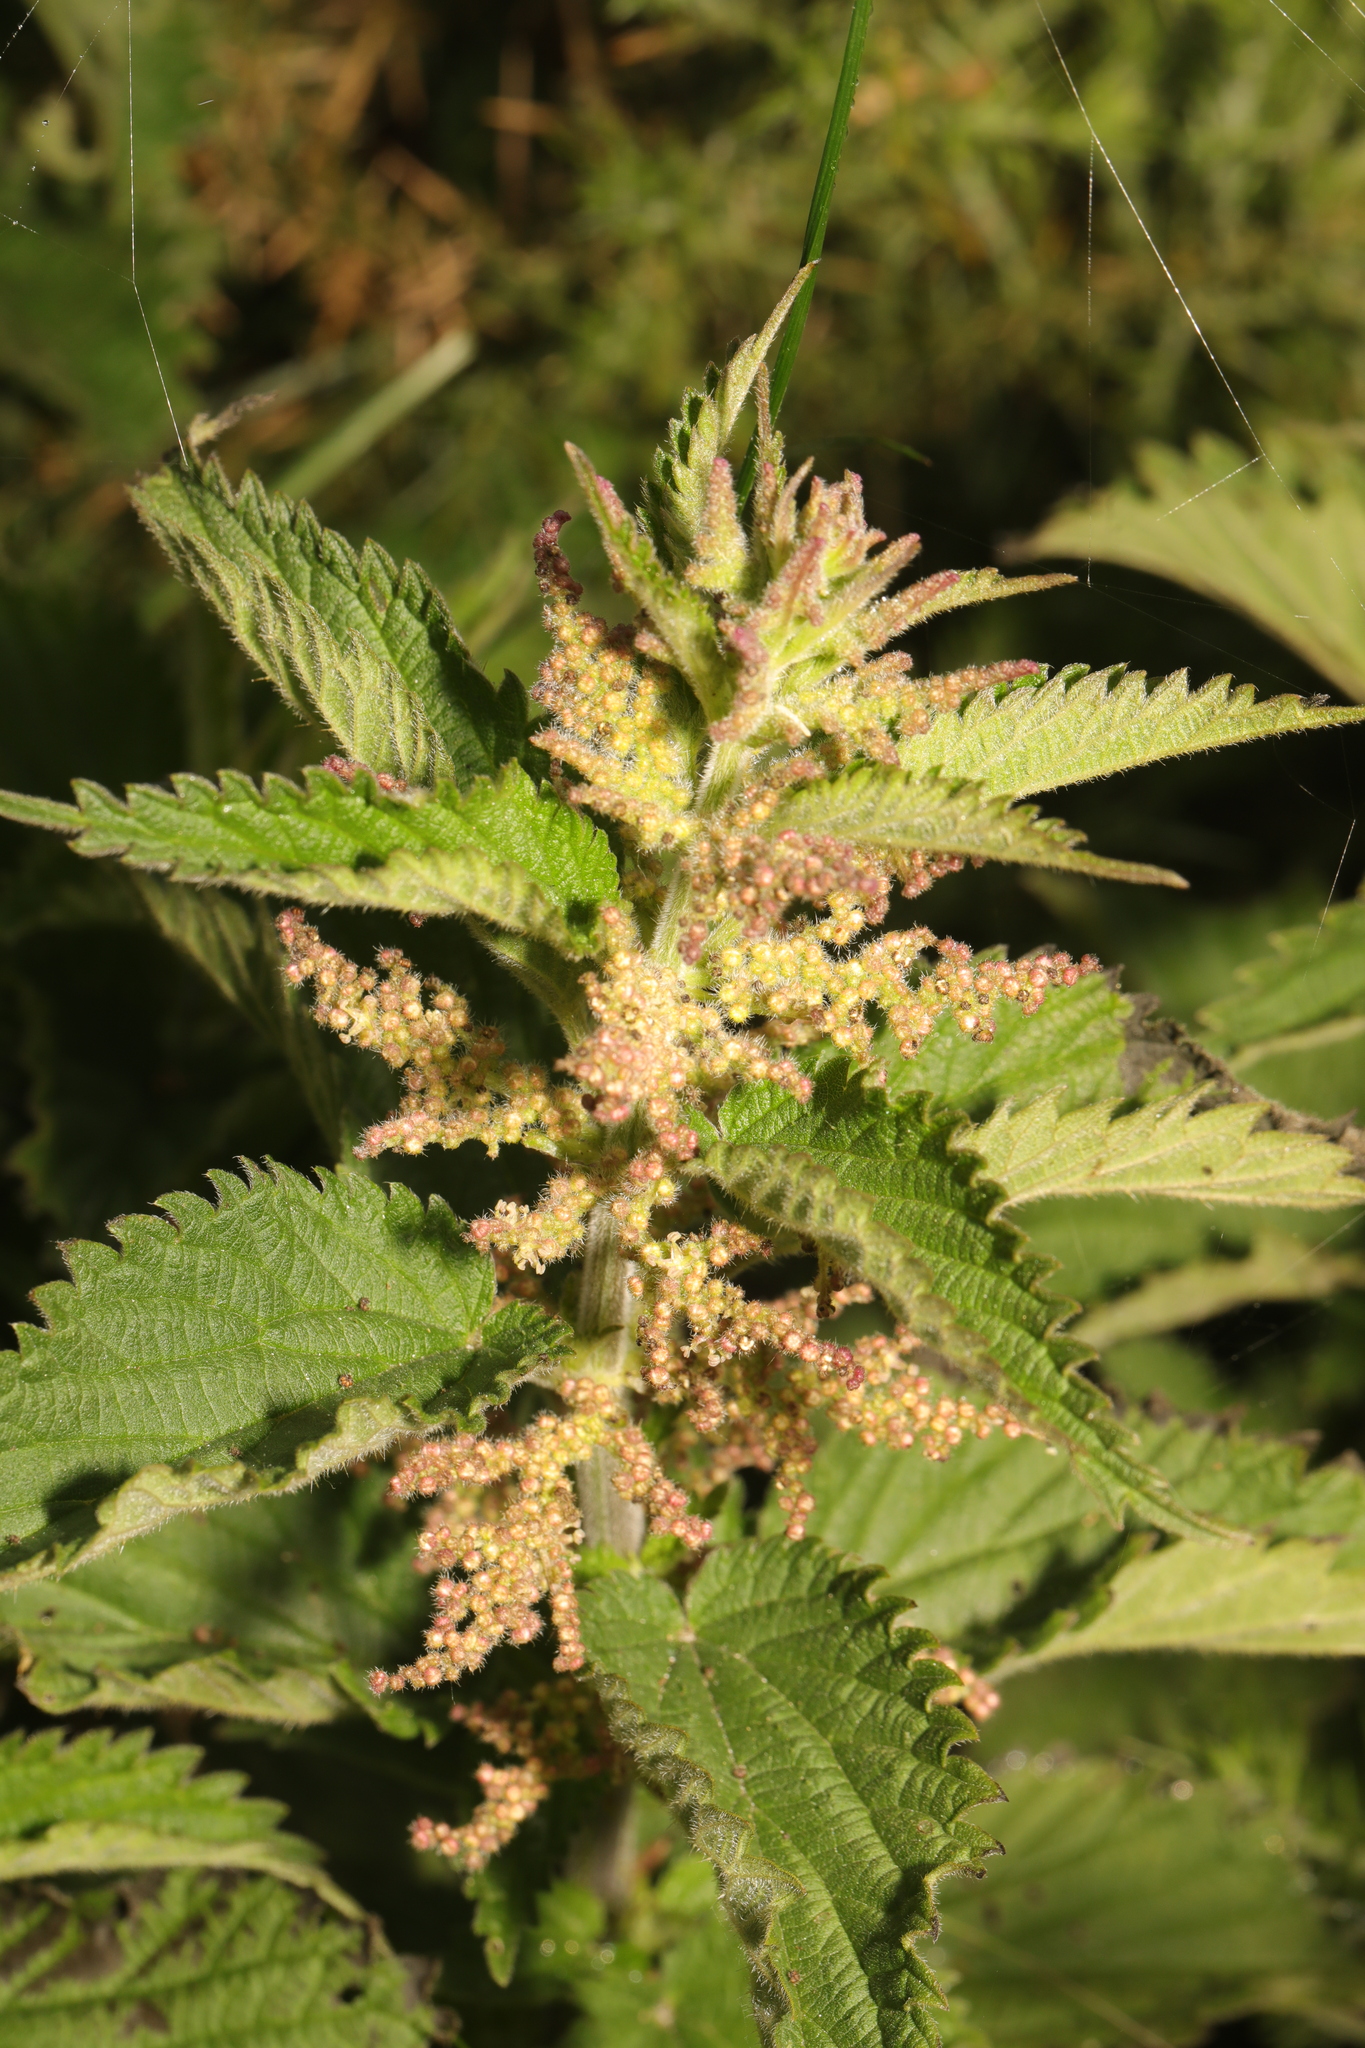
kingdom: Plantae
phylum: Tracheophyta
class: Magnoliopsida
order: Rosales
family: Urticaceae
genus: Urtica
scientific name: Urtica dioica
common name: Common nettle
